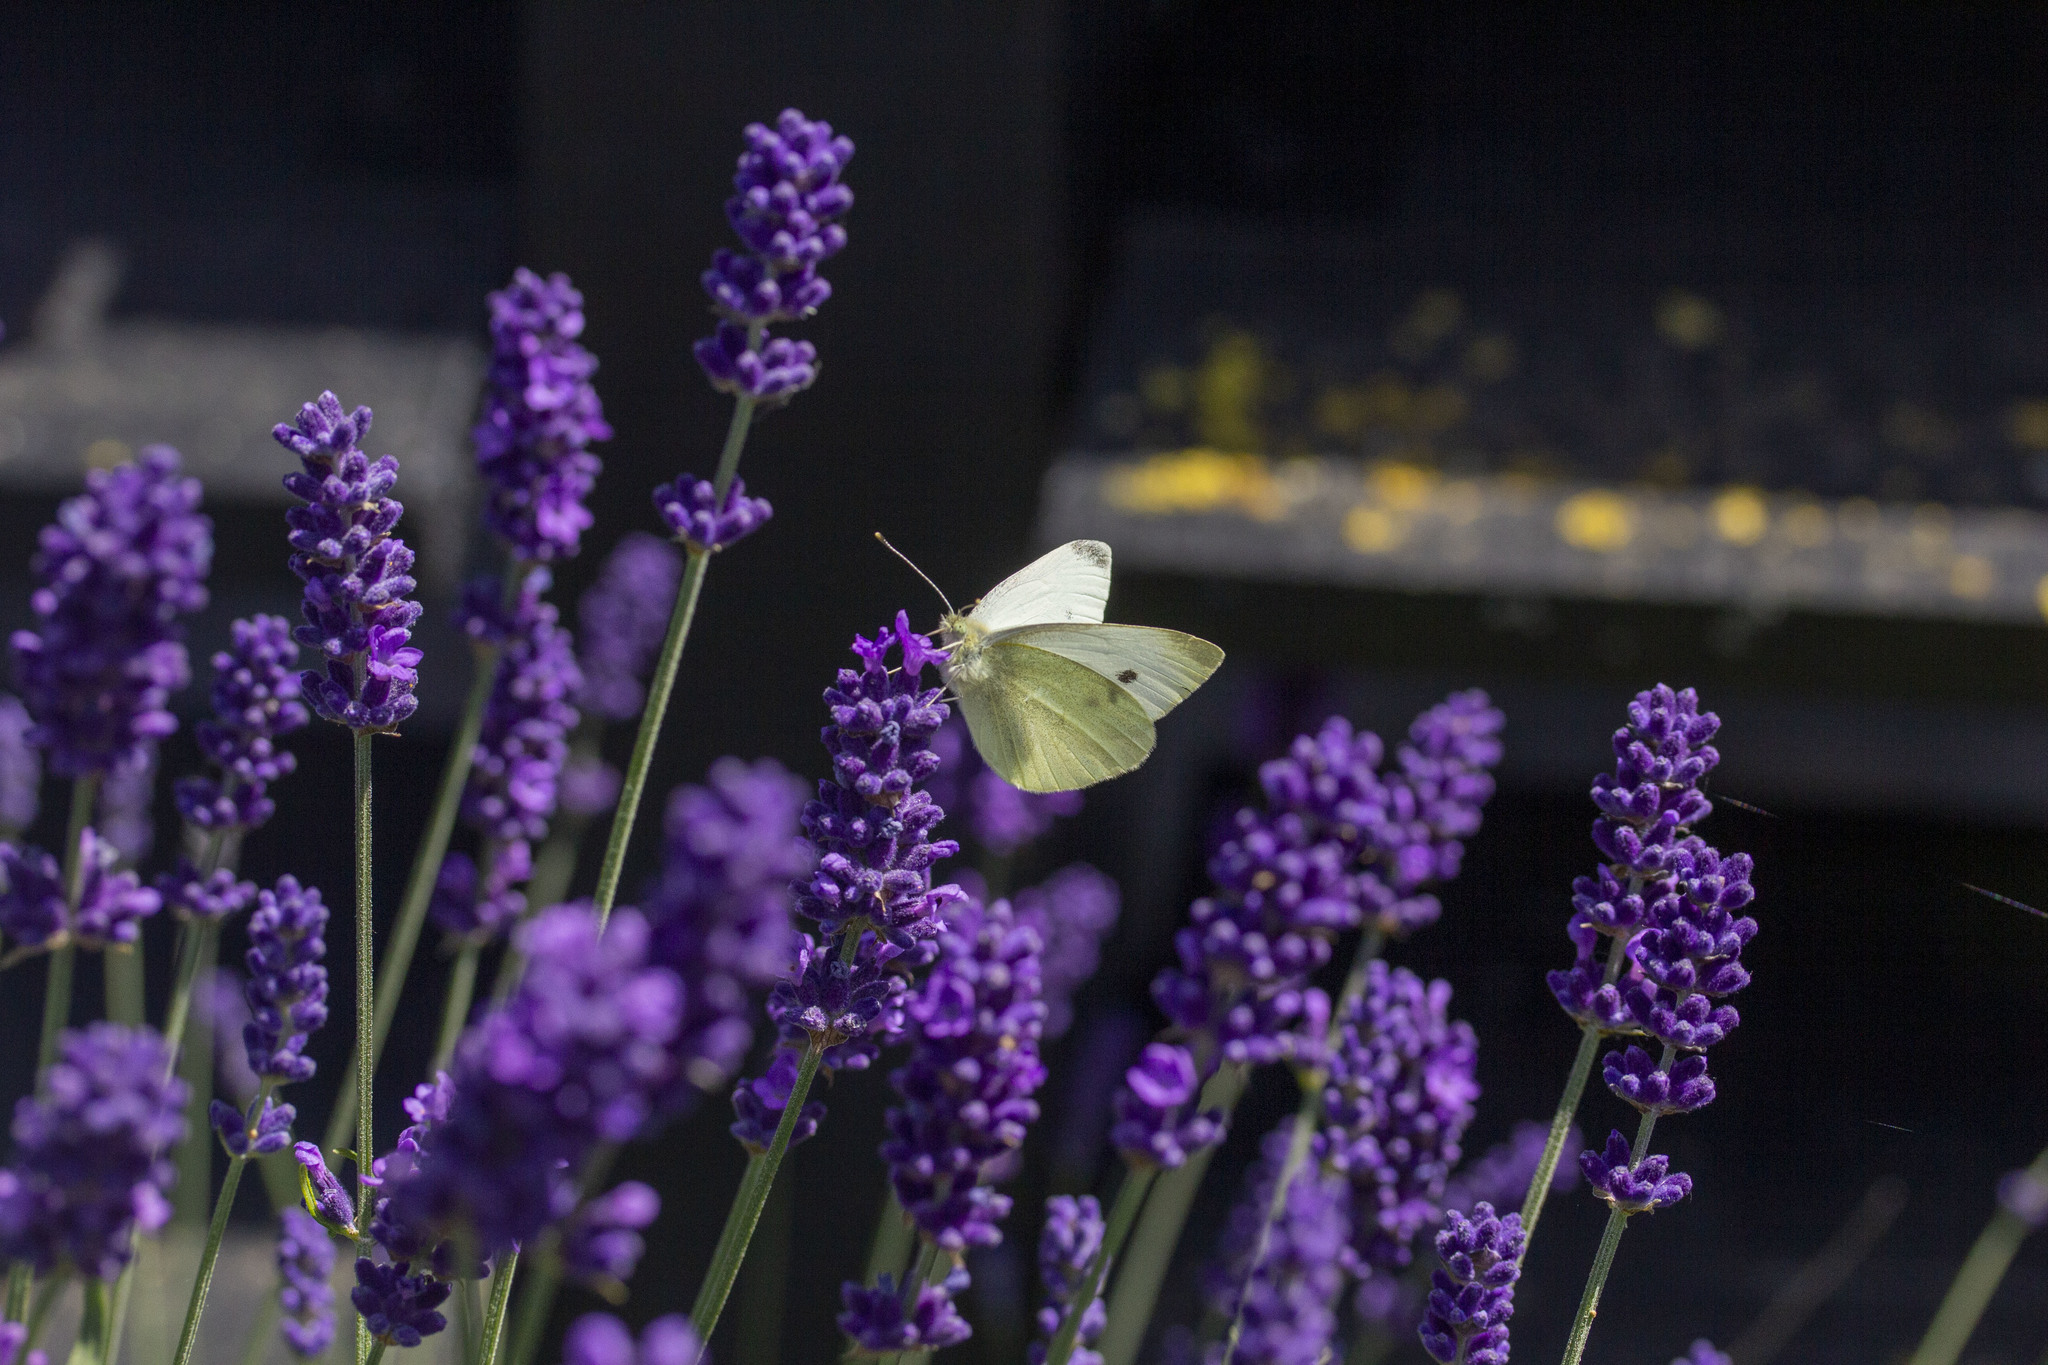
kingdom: Animalia
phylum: Arthropoda
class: Insecta
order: Lepidoptera
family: Pieridae
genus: Pieris
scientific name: Pieris rapae
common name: Small white
